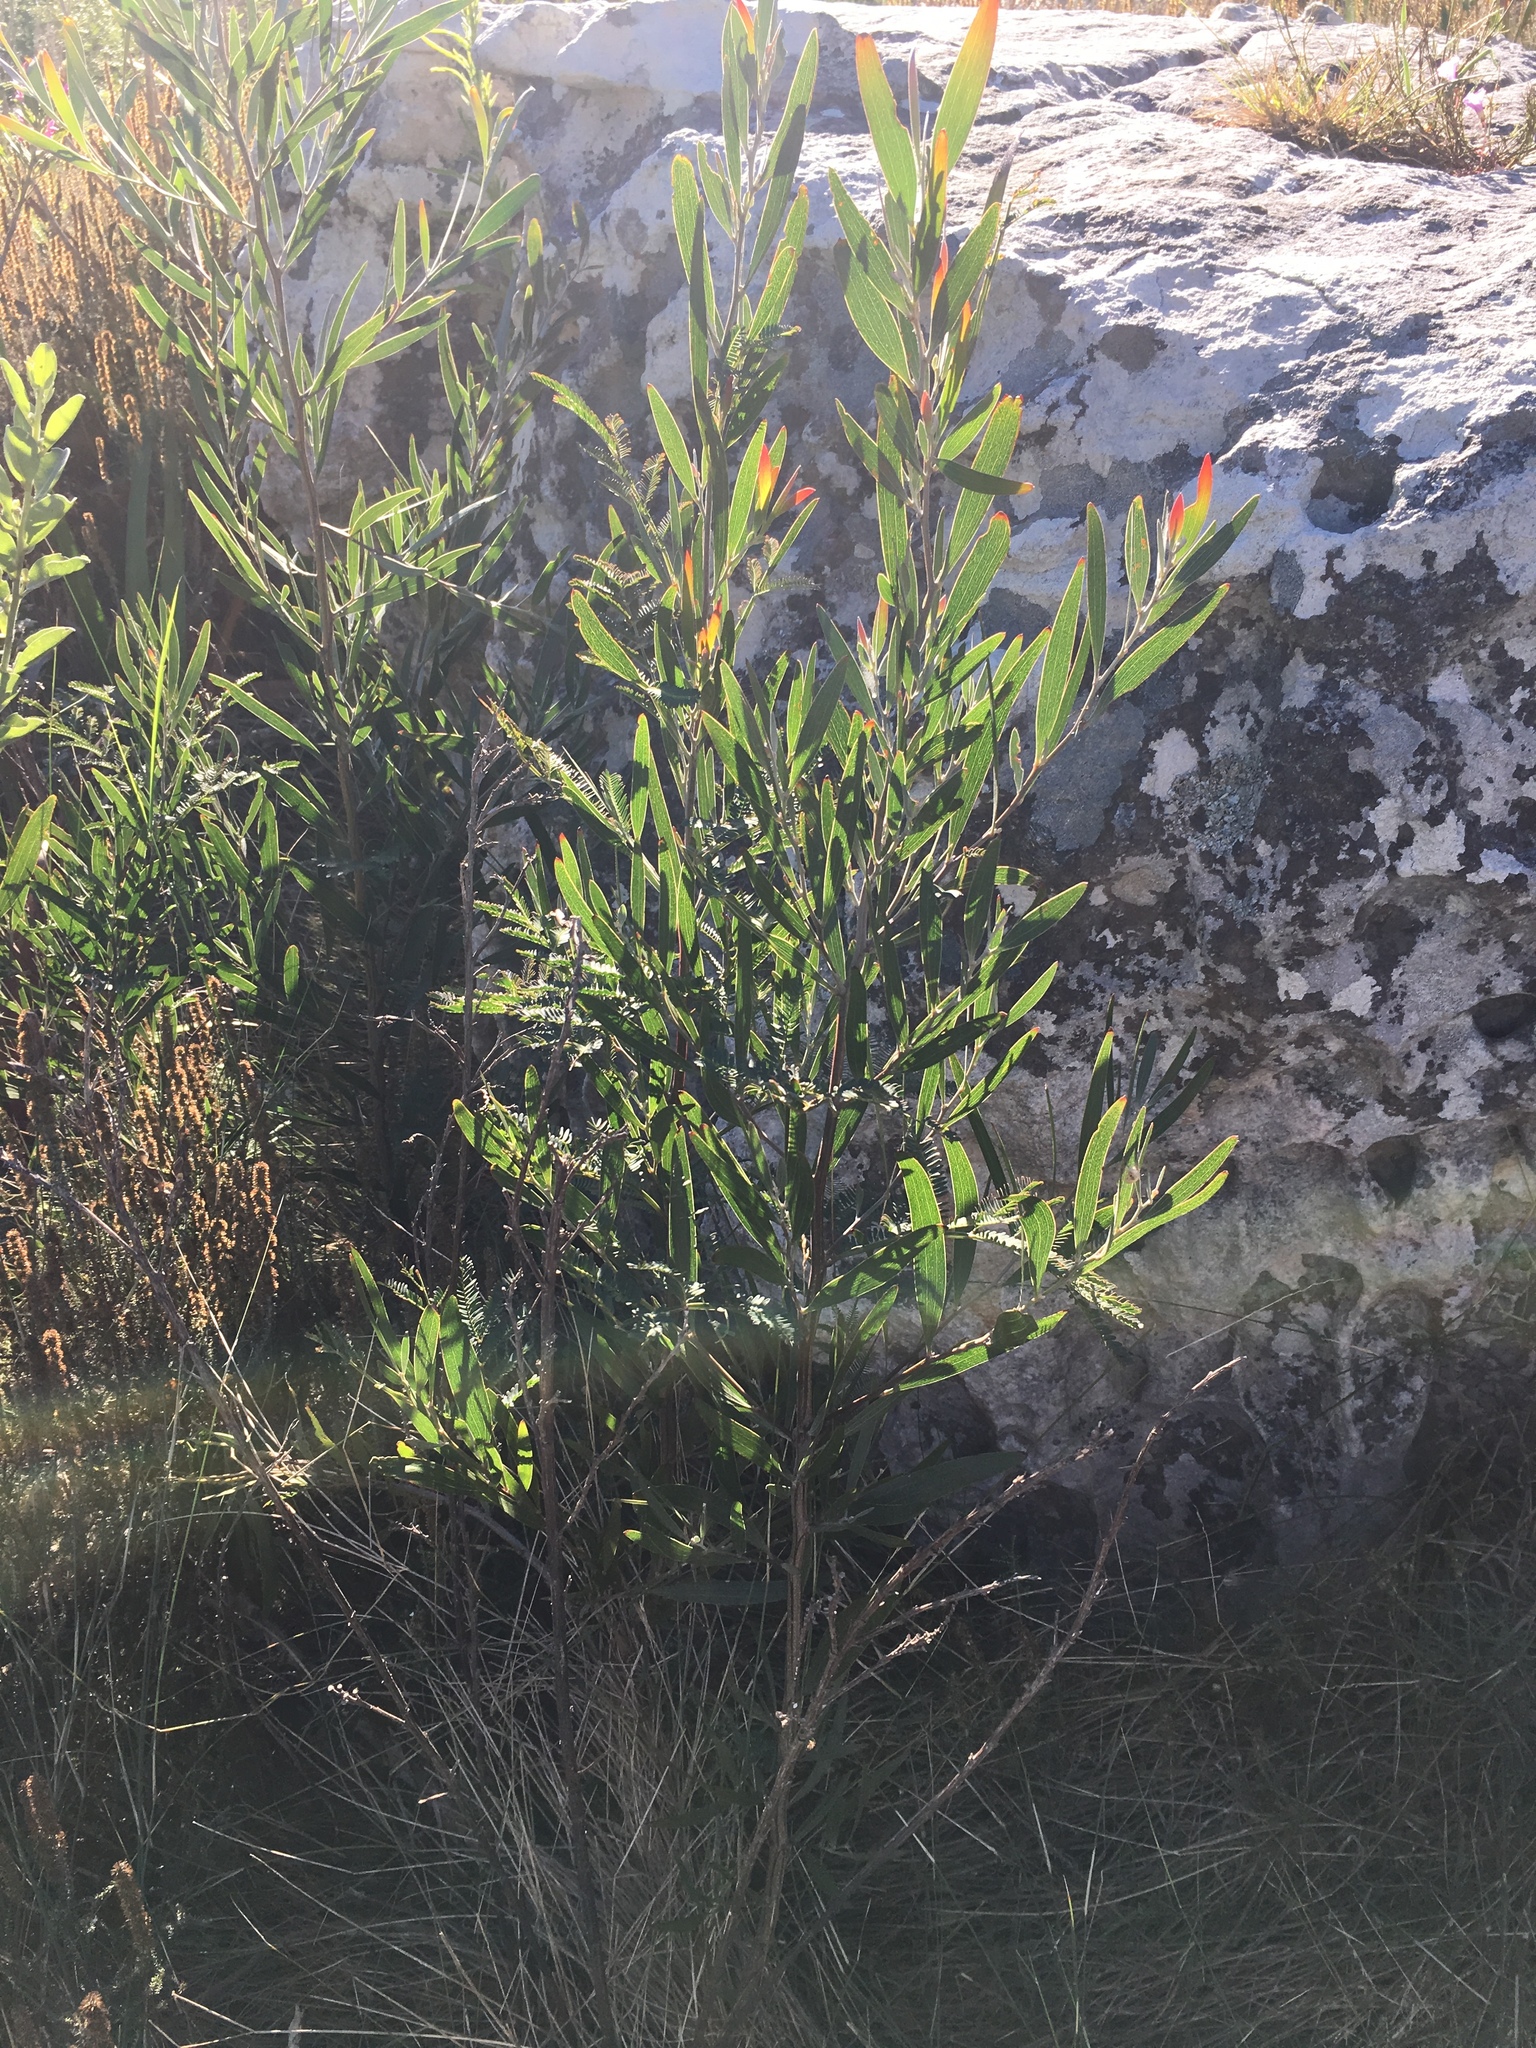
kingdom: Plantae
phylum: Tracheophyta
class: Magnoliopsida
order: Fabales
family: Fabaceae
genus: Acacia
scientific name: Acacia melanoxylon
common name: Blackwood
